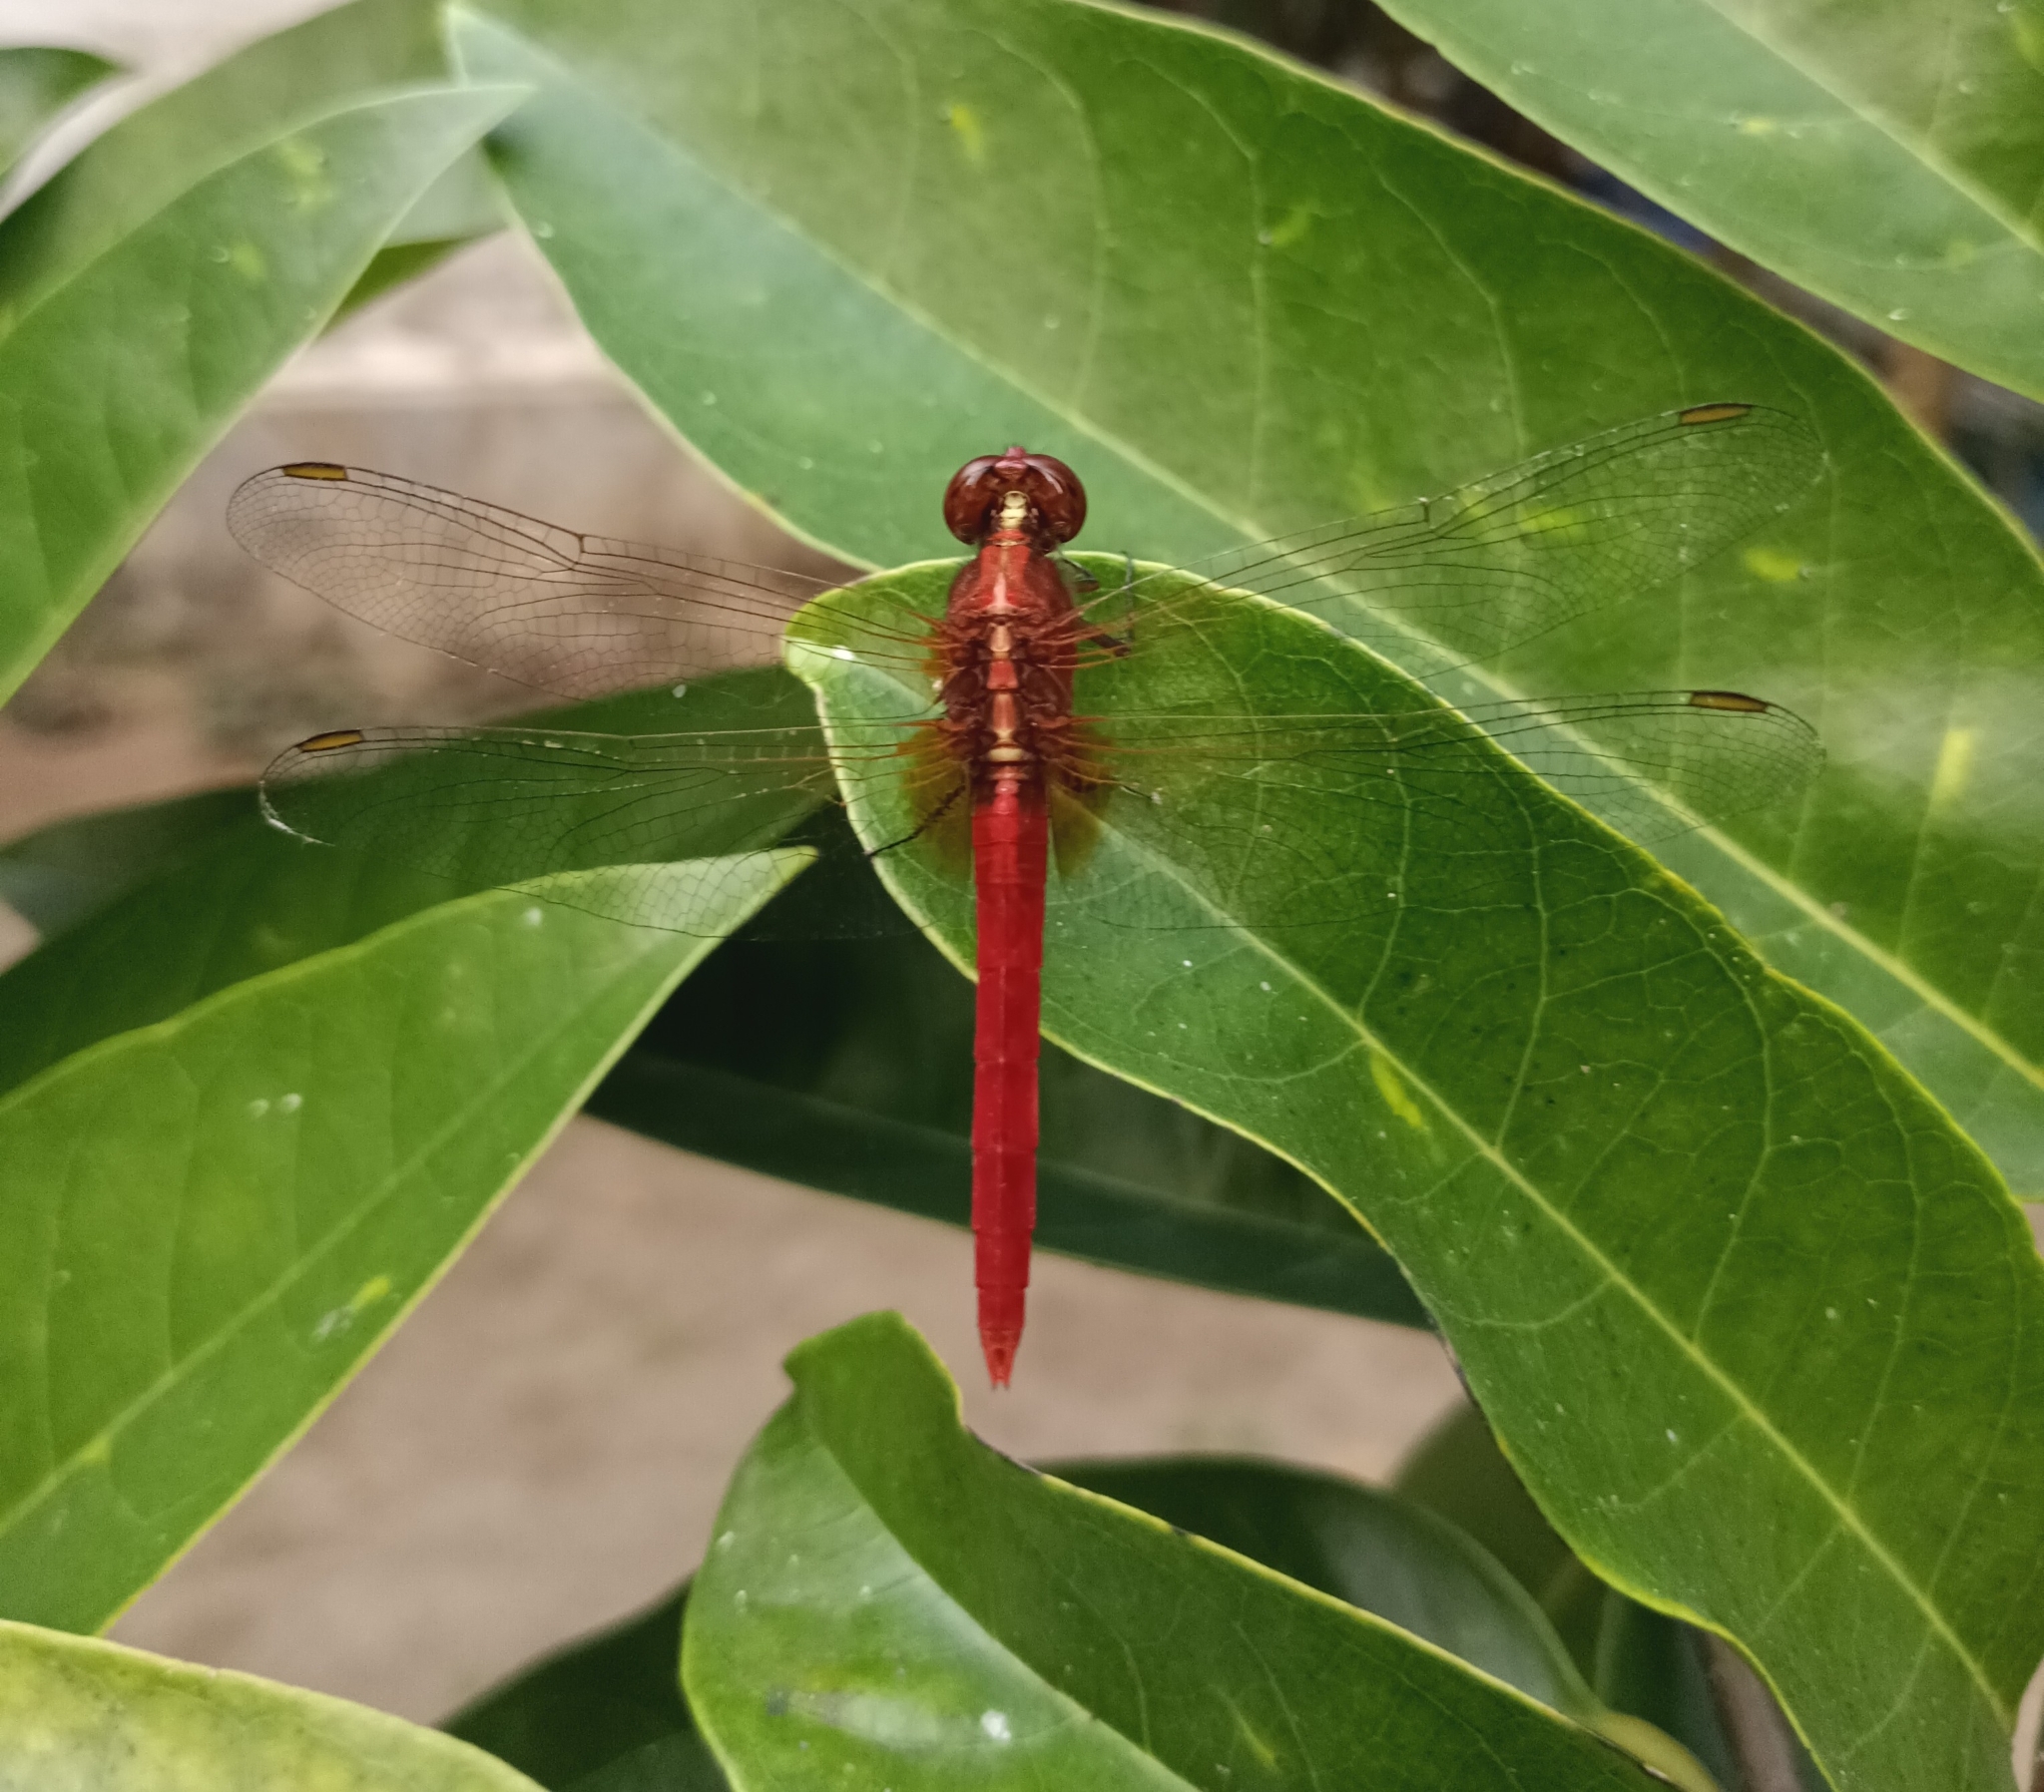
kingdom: Animalia
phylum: Arthropoda
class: Insecta
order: Odonata
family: Libellulidae
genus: Rhodothemis
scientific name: Rhodothemis rufa
